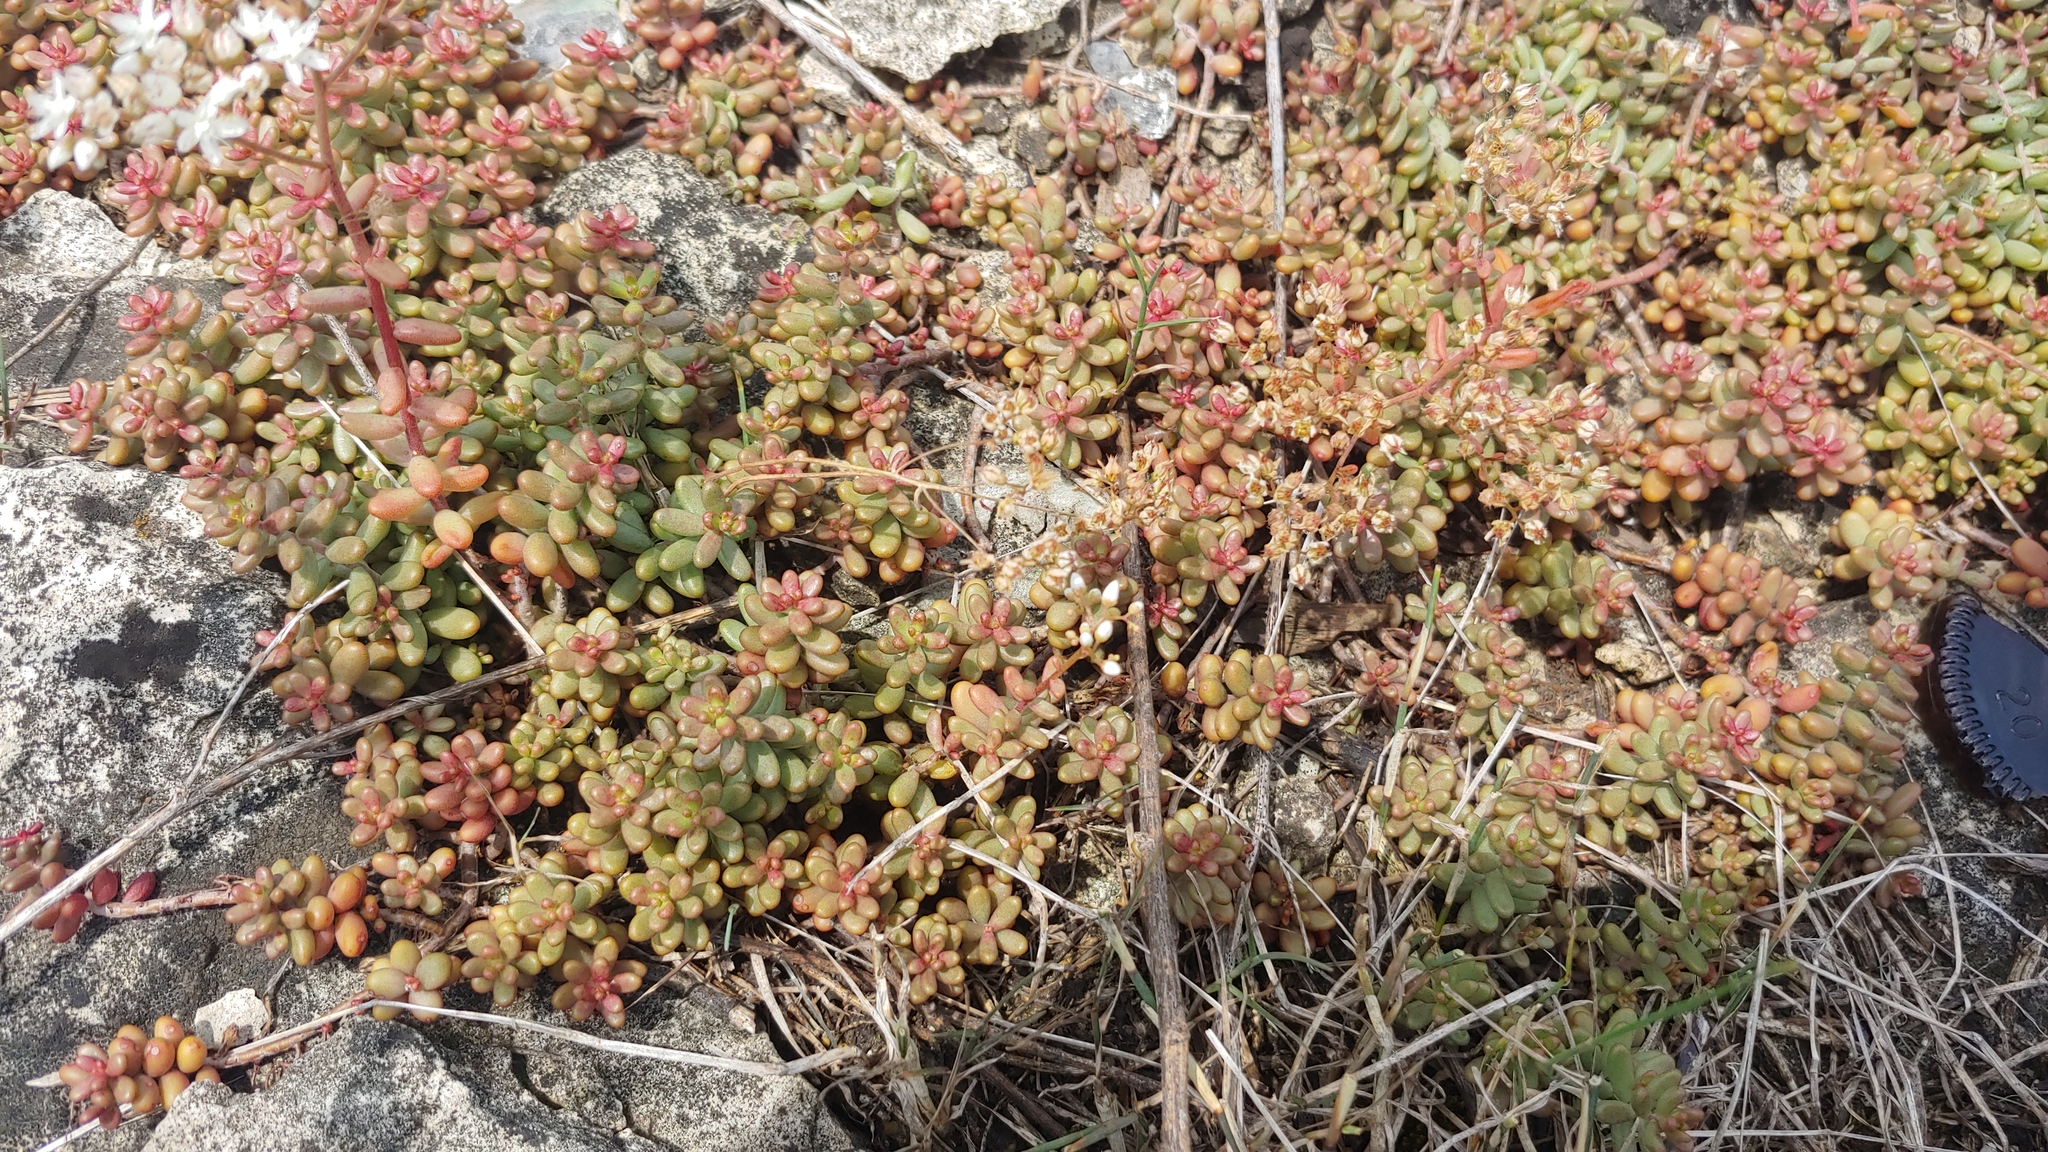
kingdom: Plantae
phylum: Tracheophyta
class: Magnoliopsida
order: Saxifragales
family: Crassulaceae
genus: Sedum
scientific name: Sedum album
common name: White stonecrop
